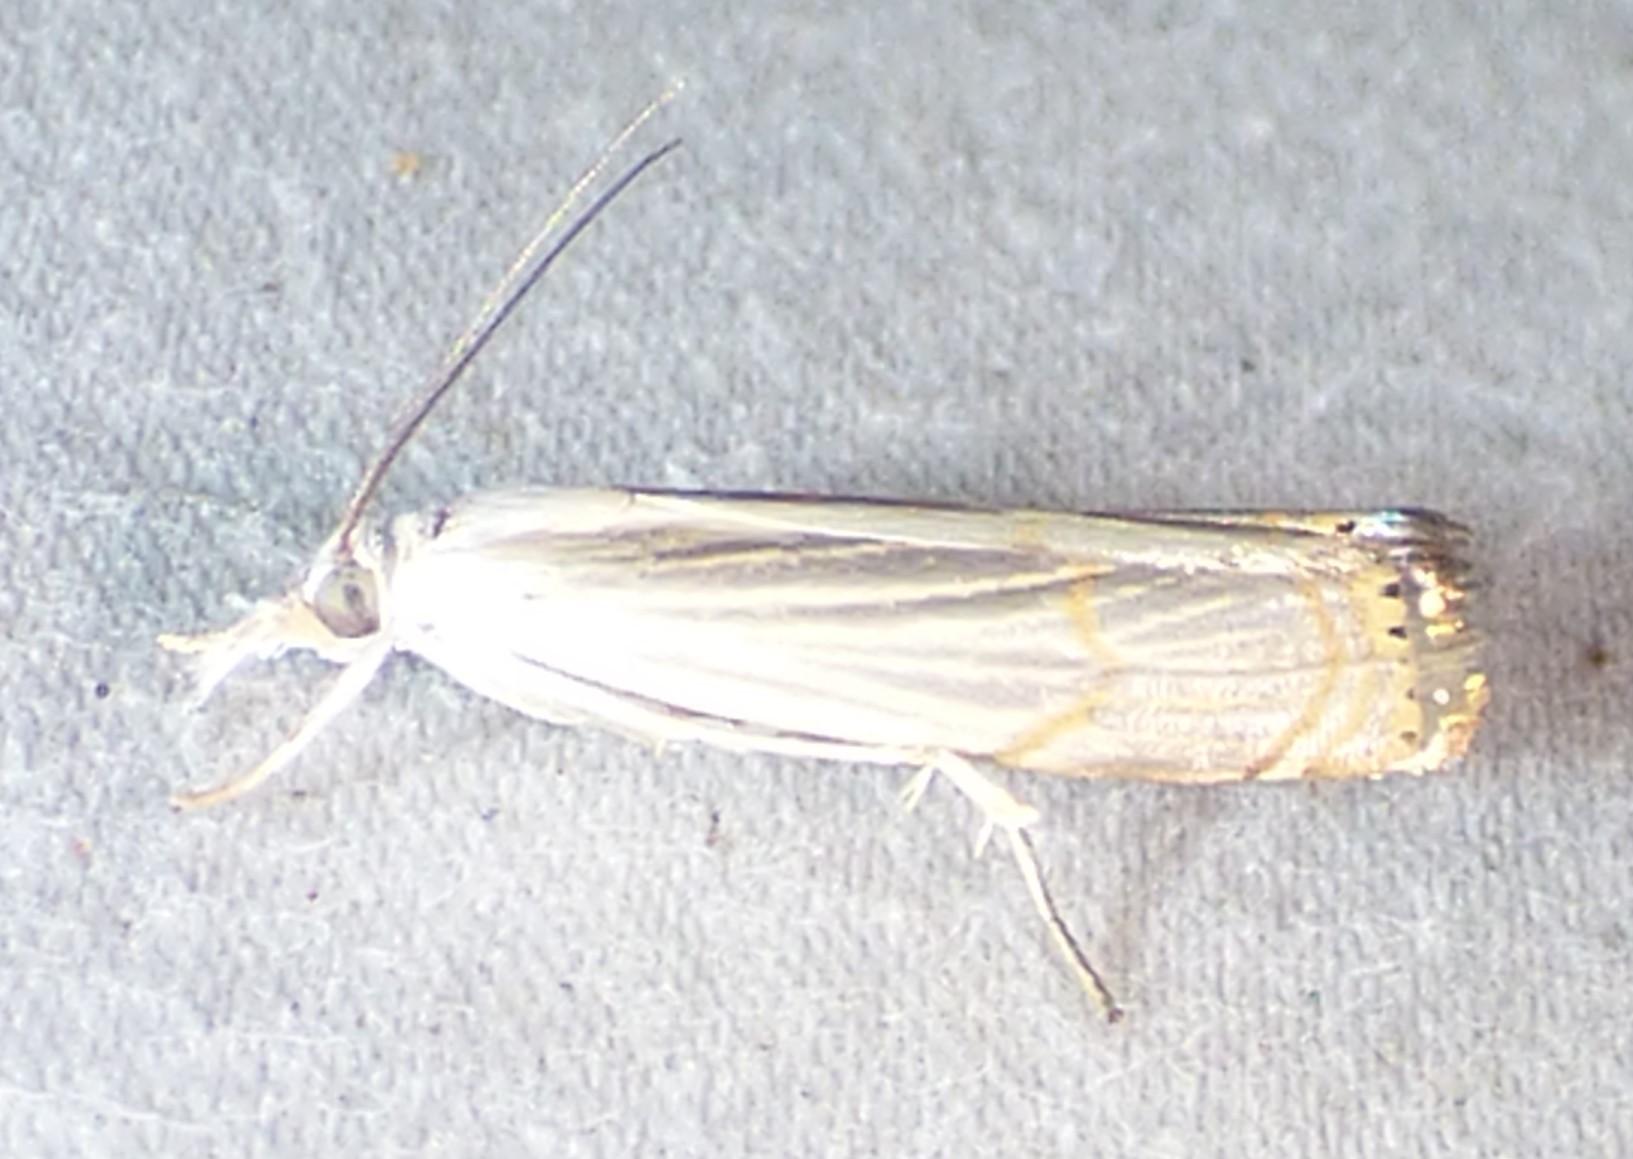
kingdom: Animalia
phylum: Arthropoda
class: Insecta
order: Lepidoptera
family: Crambidae
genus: Parapediasia
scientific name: Parapediasia decorellus
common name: Graceful grass-veneer
